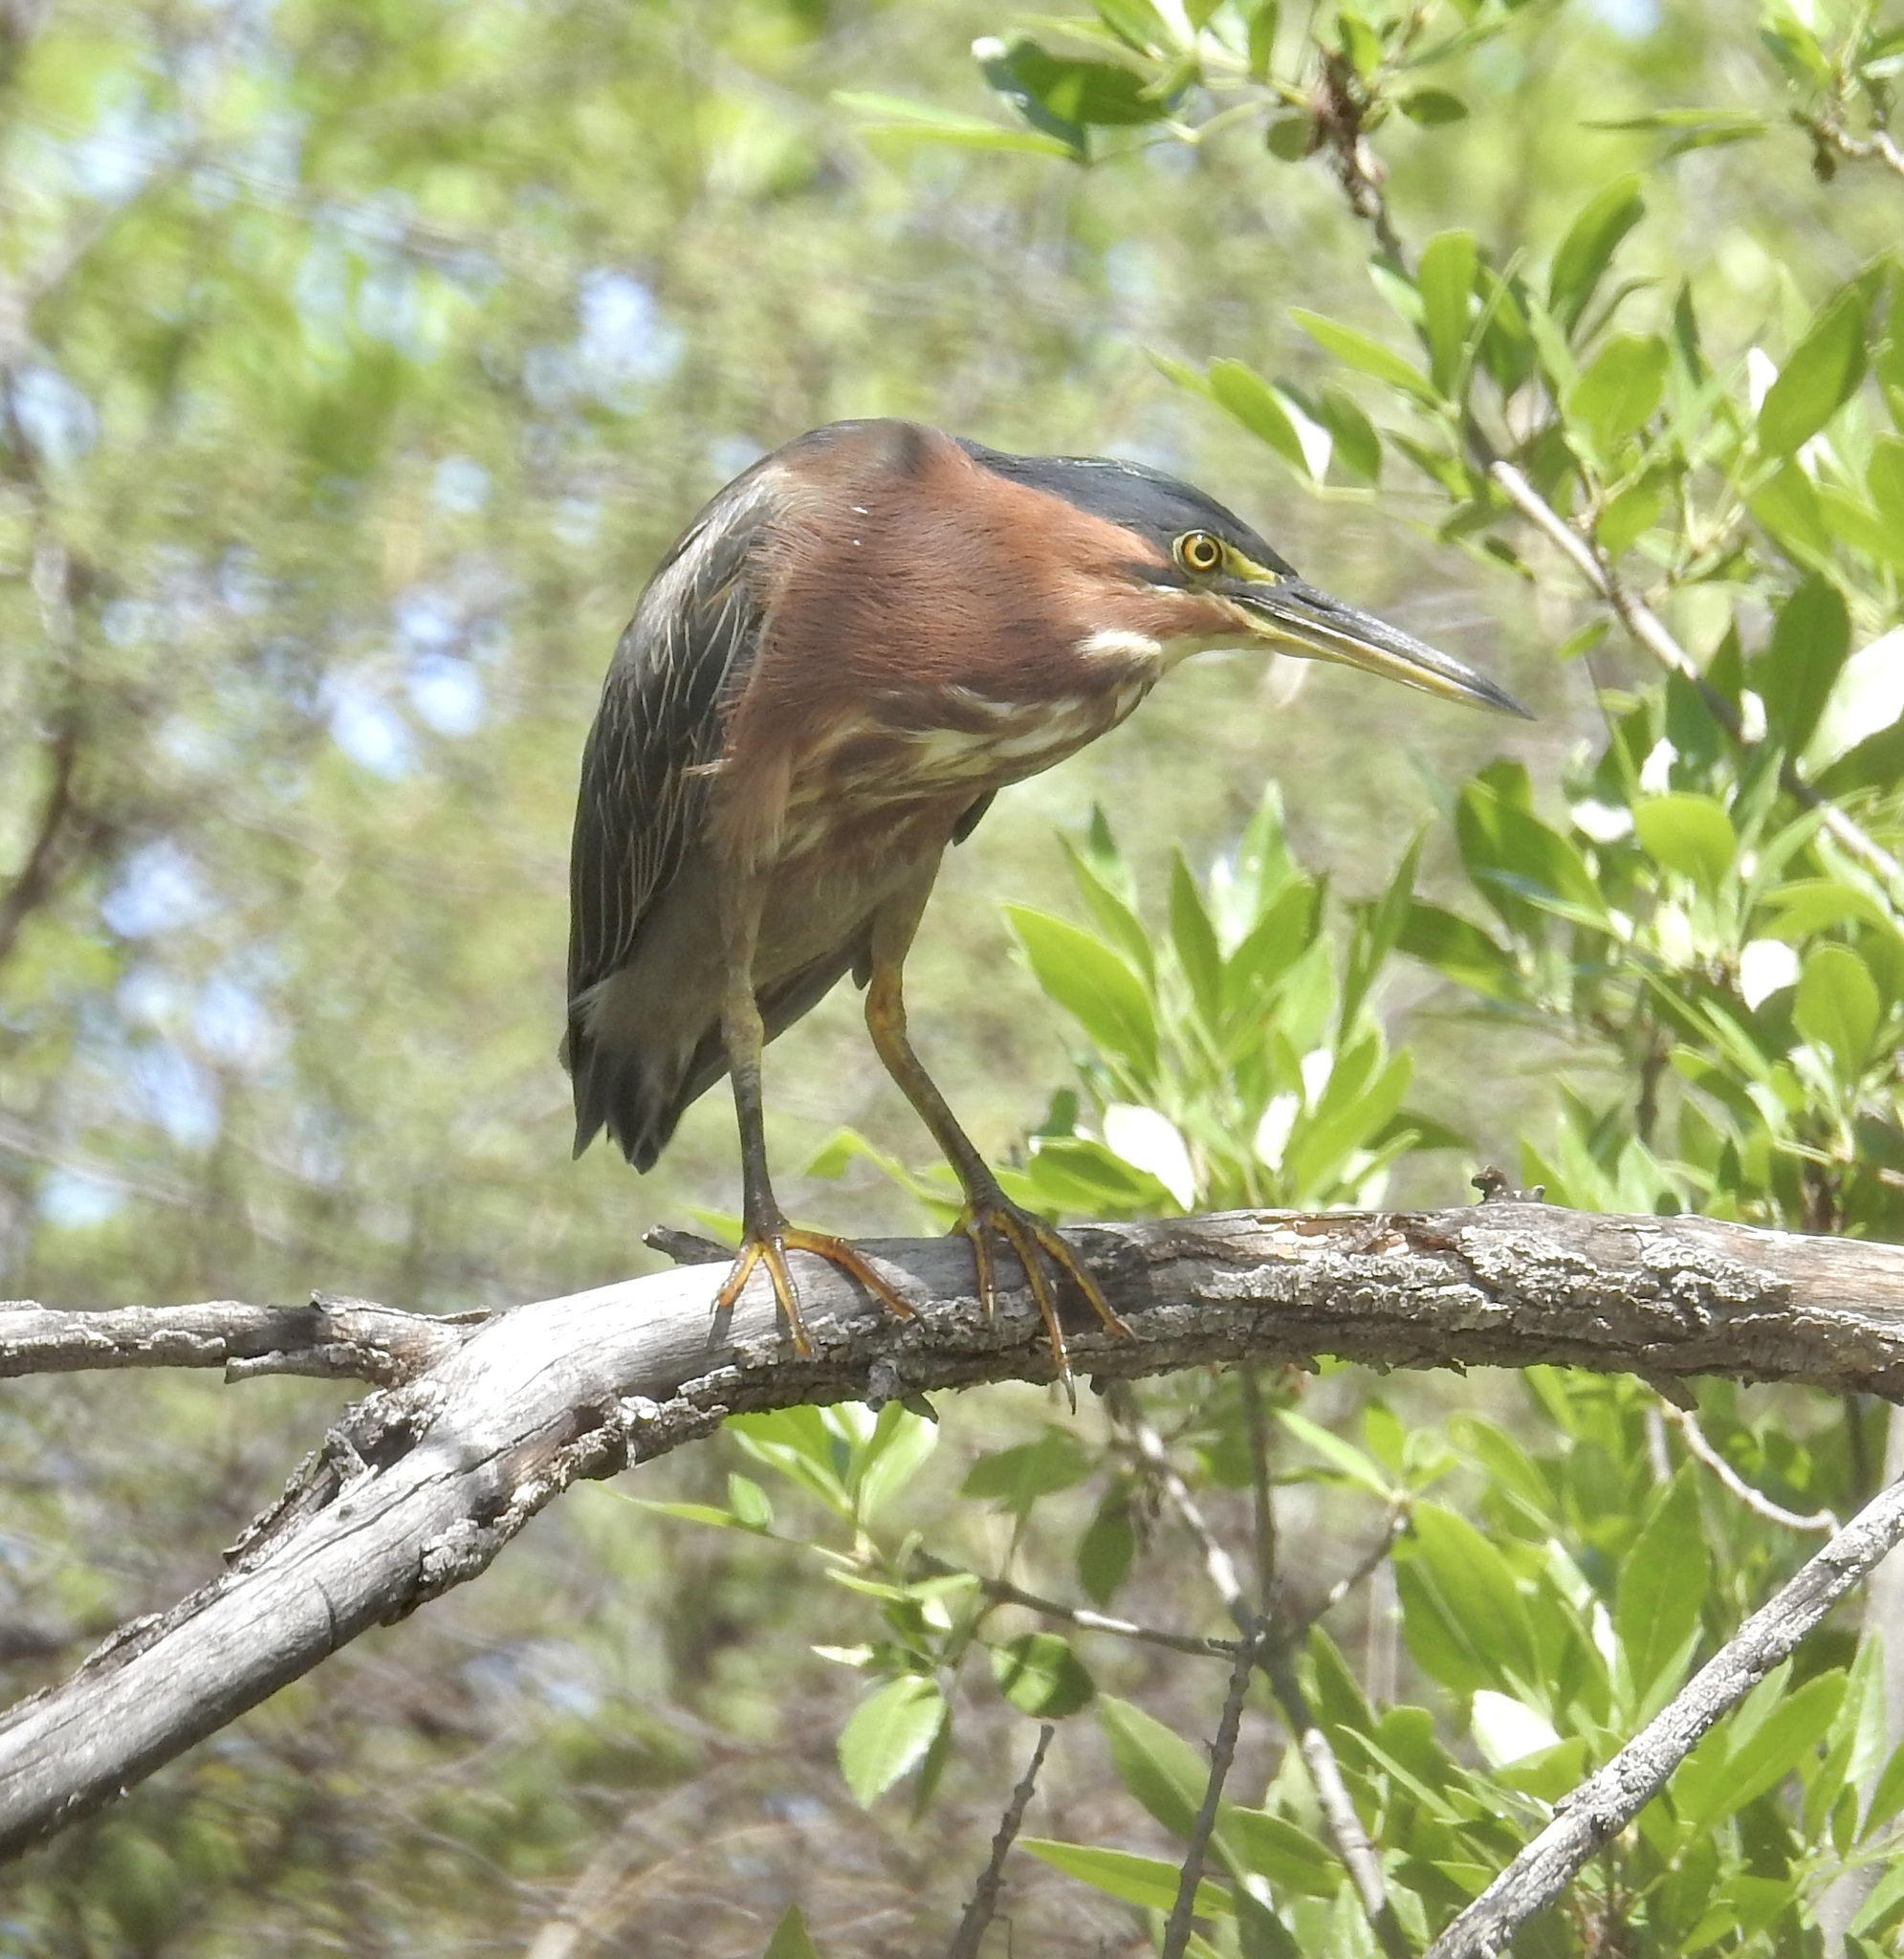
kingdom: Animalia
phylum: Chordata
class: Aves
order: Pelecaniformes
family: Ardeidae
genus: Butorides
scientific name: Butorides virescens
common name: Green heron
